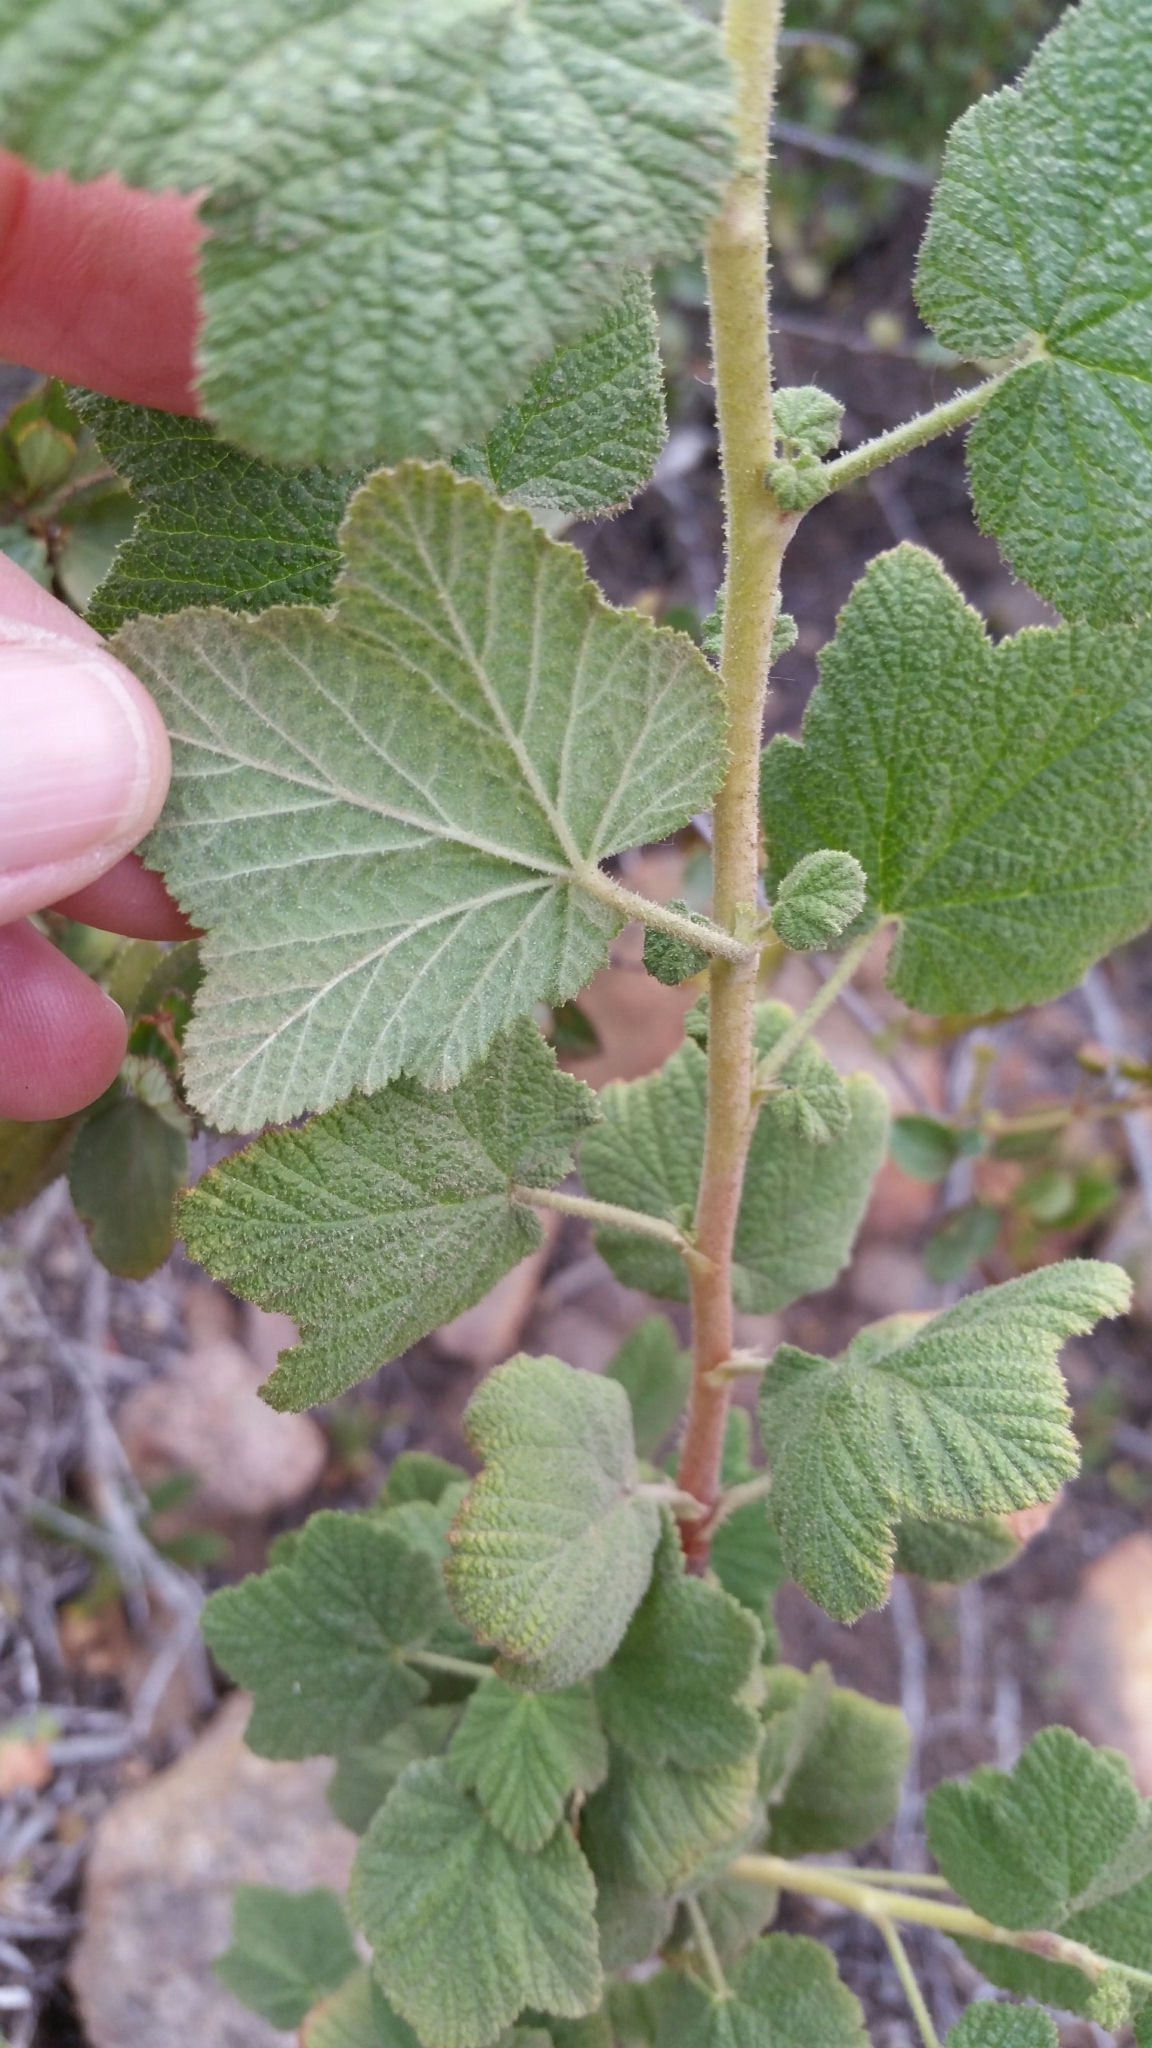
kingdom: Plantae
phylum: Tracheophyta
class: Magnoliopsida
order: Saxifragales
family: Grossulariaceae
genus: Ribes
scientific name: Ribes indecorum
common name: White-flower currant
